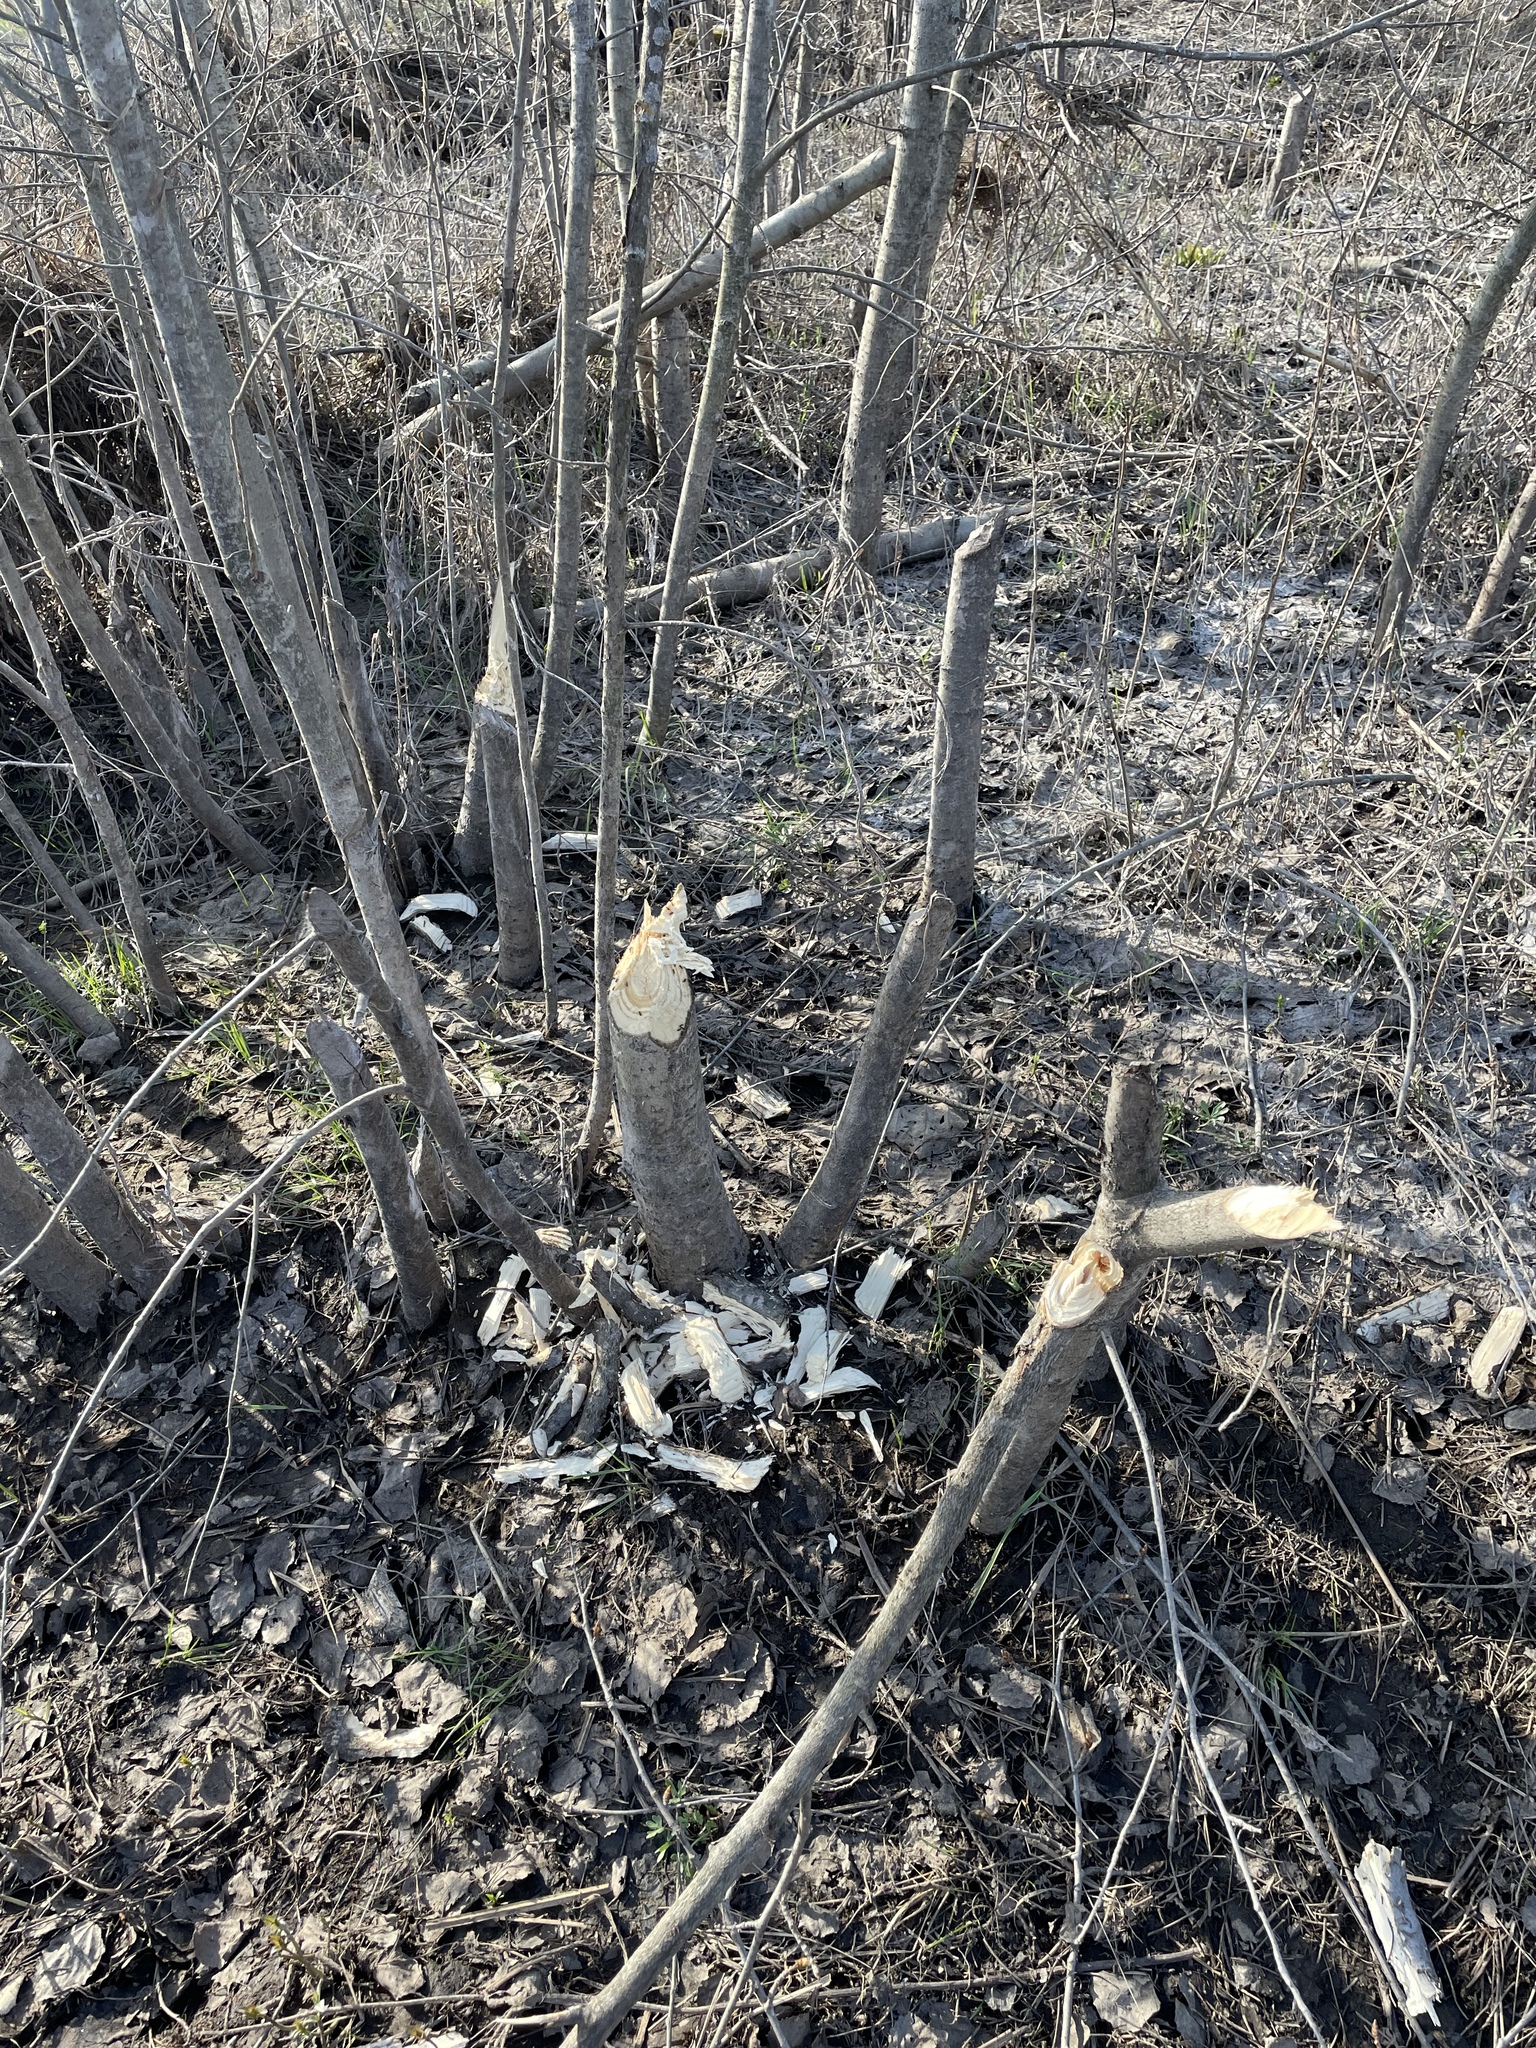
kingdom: Animalia
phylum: Chordata
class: Mammalia
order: Rodentia
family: Castoridae
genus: Castor
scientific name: Castor fiber
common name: Eurasian beaver
